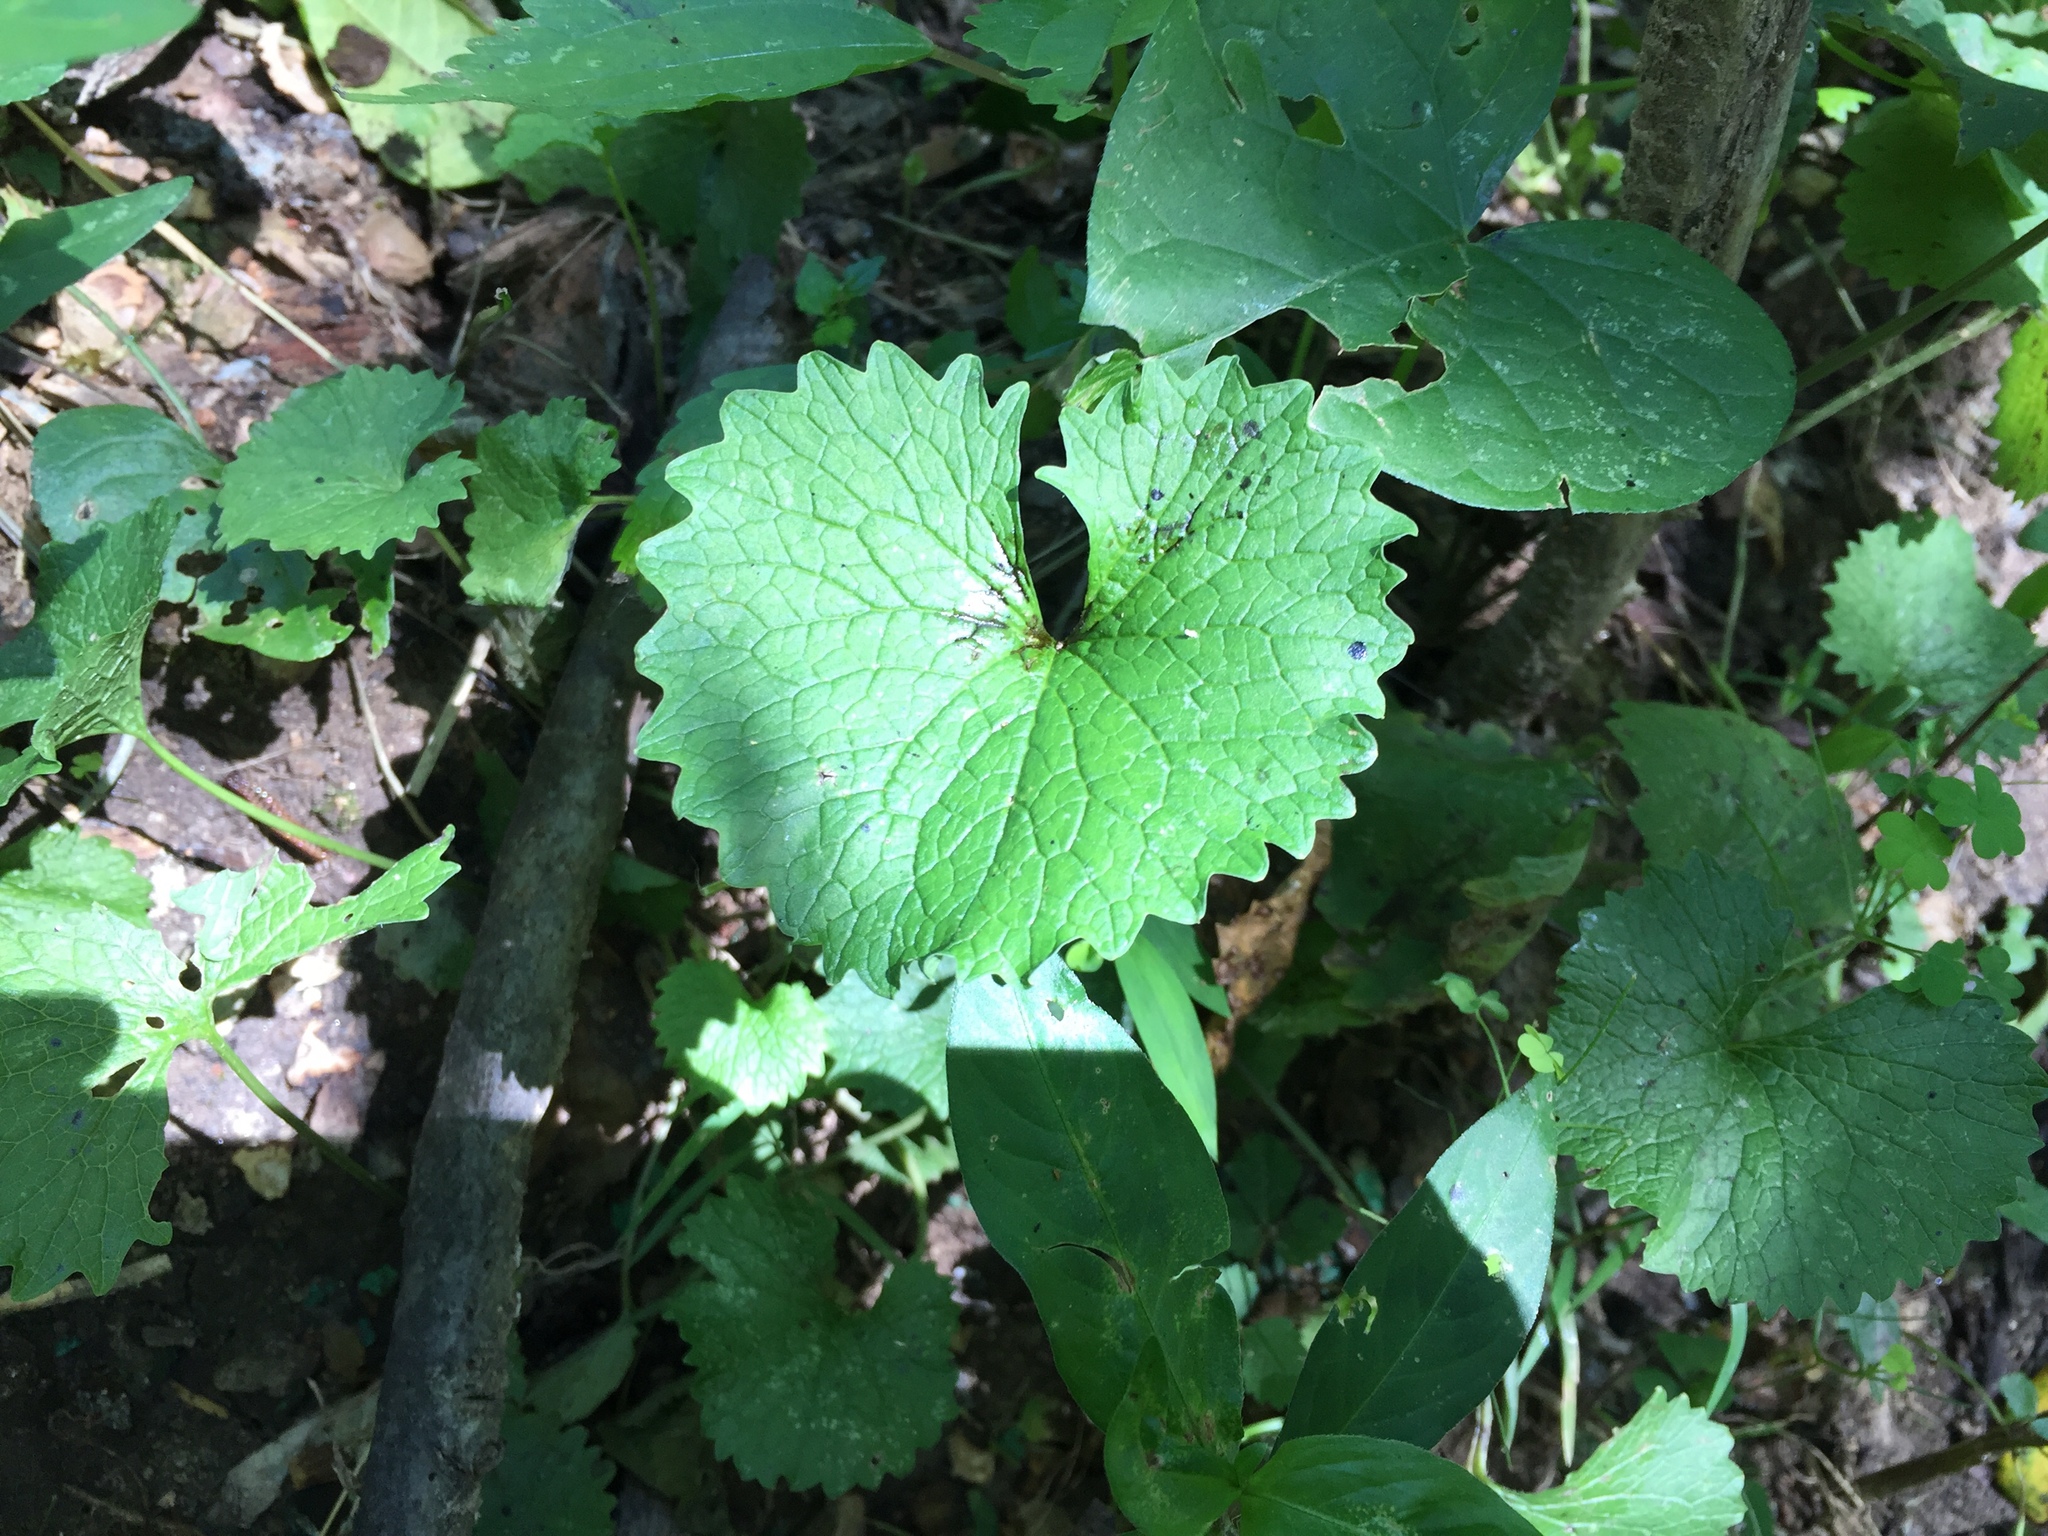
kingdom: Plantae
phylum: Tracheophyta
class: Magnoliopsida
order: Brassicales
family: Brassicaceae
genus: Alliaria
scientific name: Alliaria petiolata
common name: Garlic mustard
